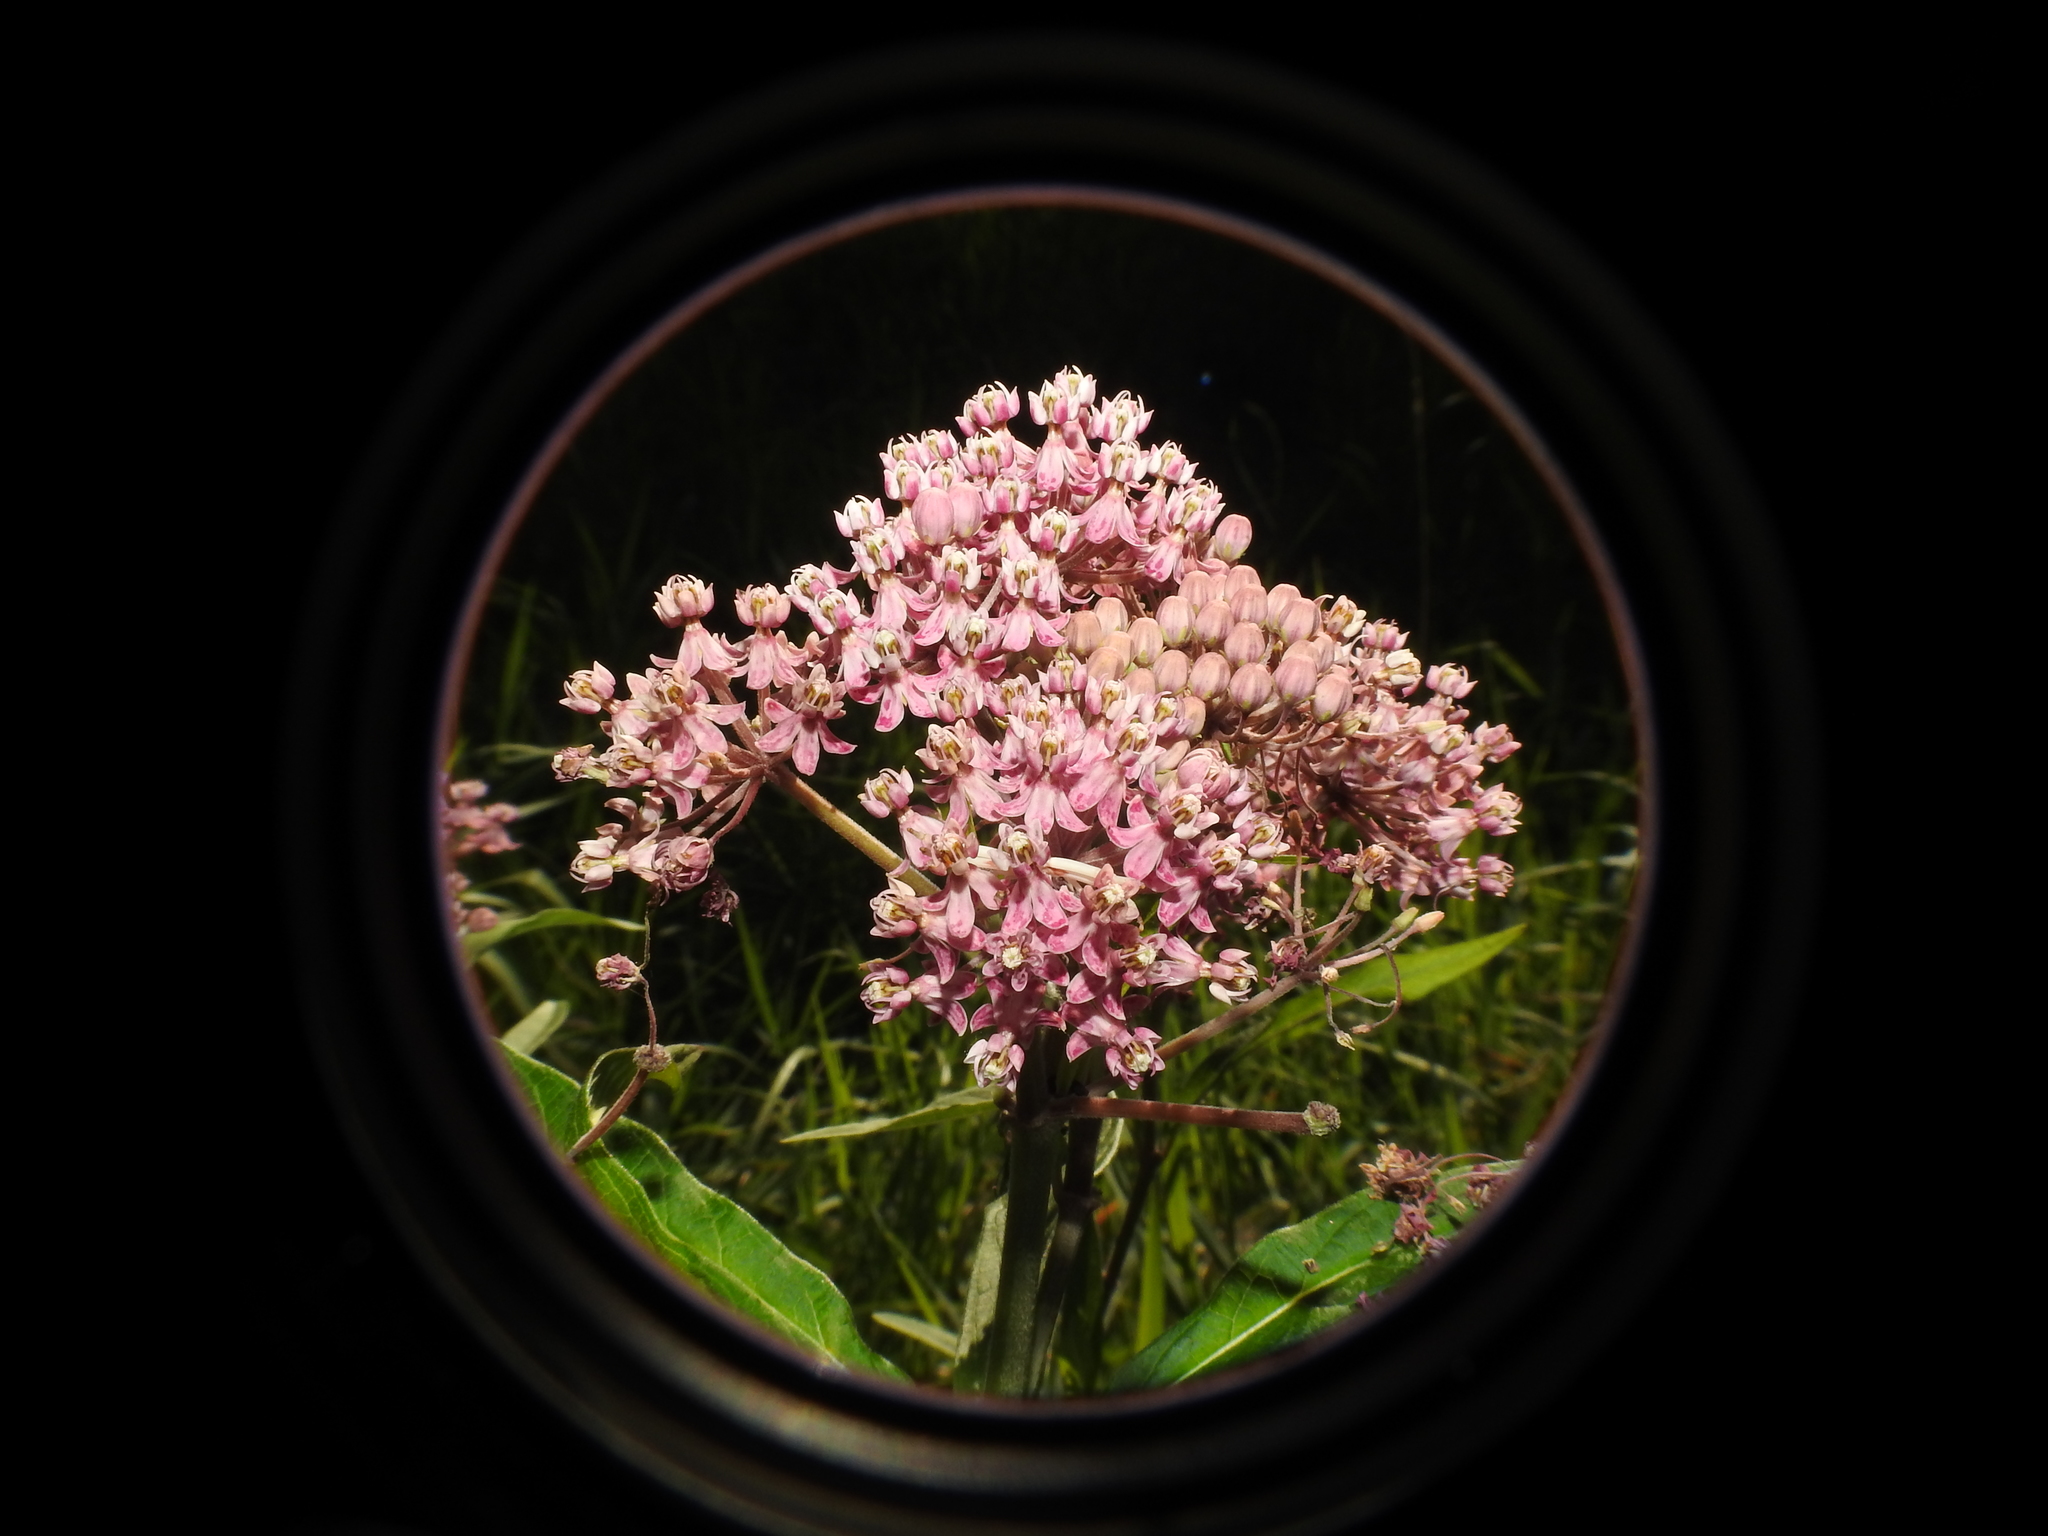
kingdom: Plantae
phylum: Tracheophyta
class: Magnoliopsida
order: Gentianales
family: Apocynaceae
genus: Asclepias
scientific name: Asclepias incarnata
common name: Swamp milkweed
